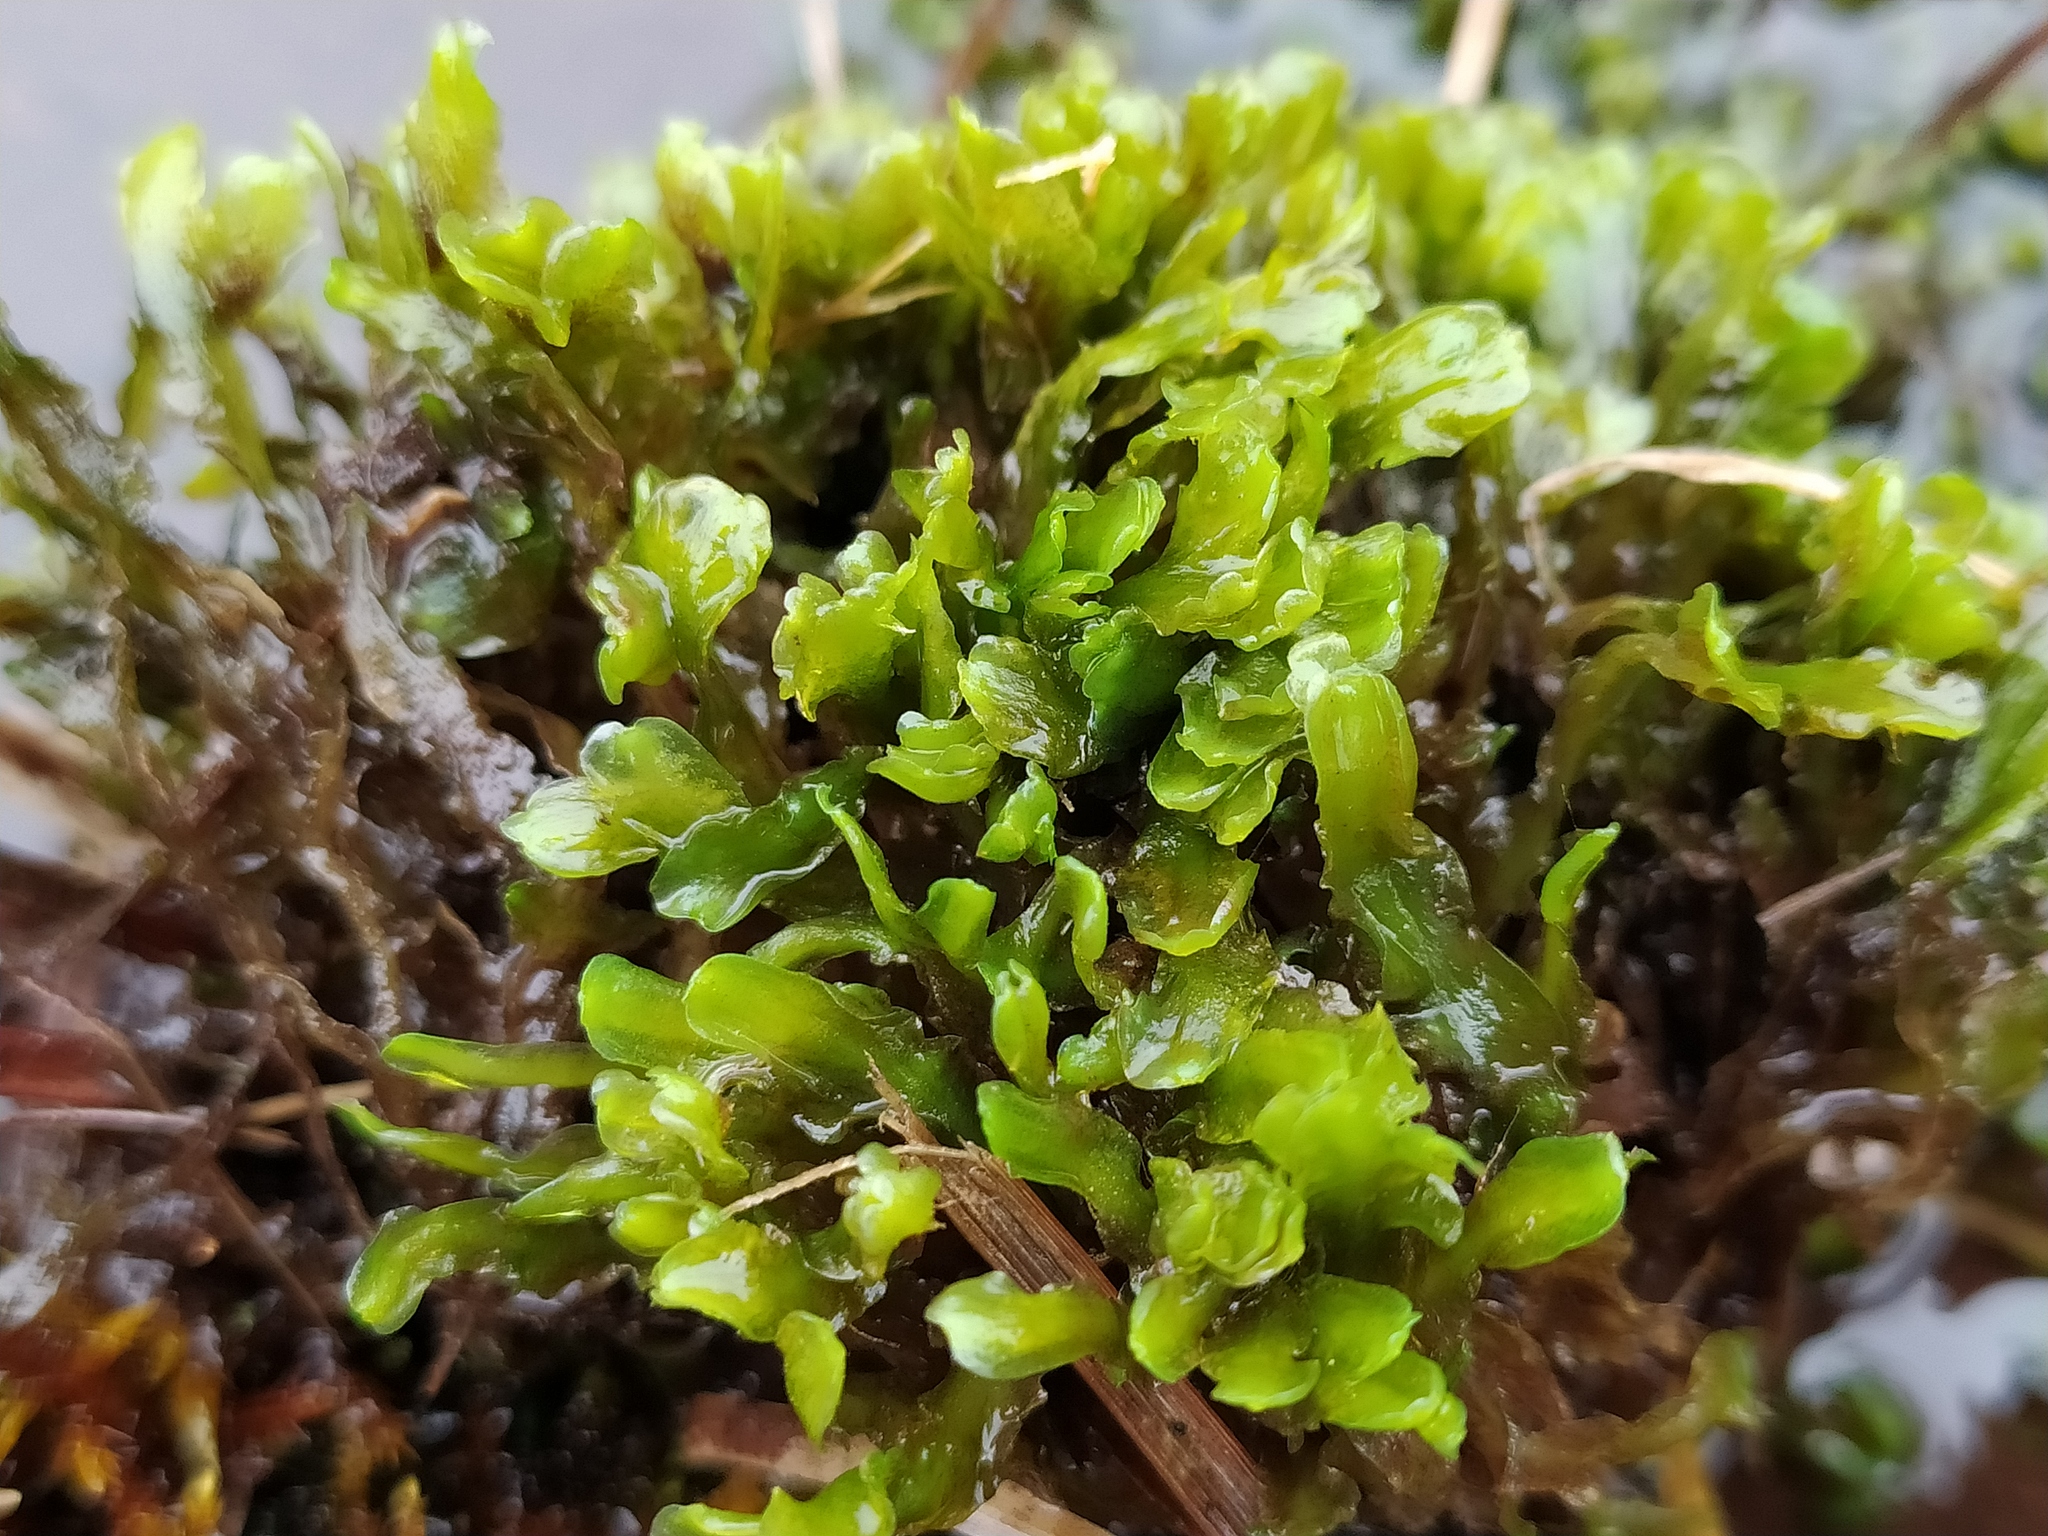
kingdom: Plantae
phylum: Marchantiophyta
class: Jungermanniopsida
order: Metzgeriales
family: Aneuraceae
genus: Aneura
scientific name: Aneura pinguis
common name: Common greasewort
